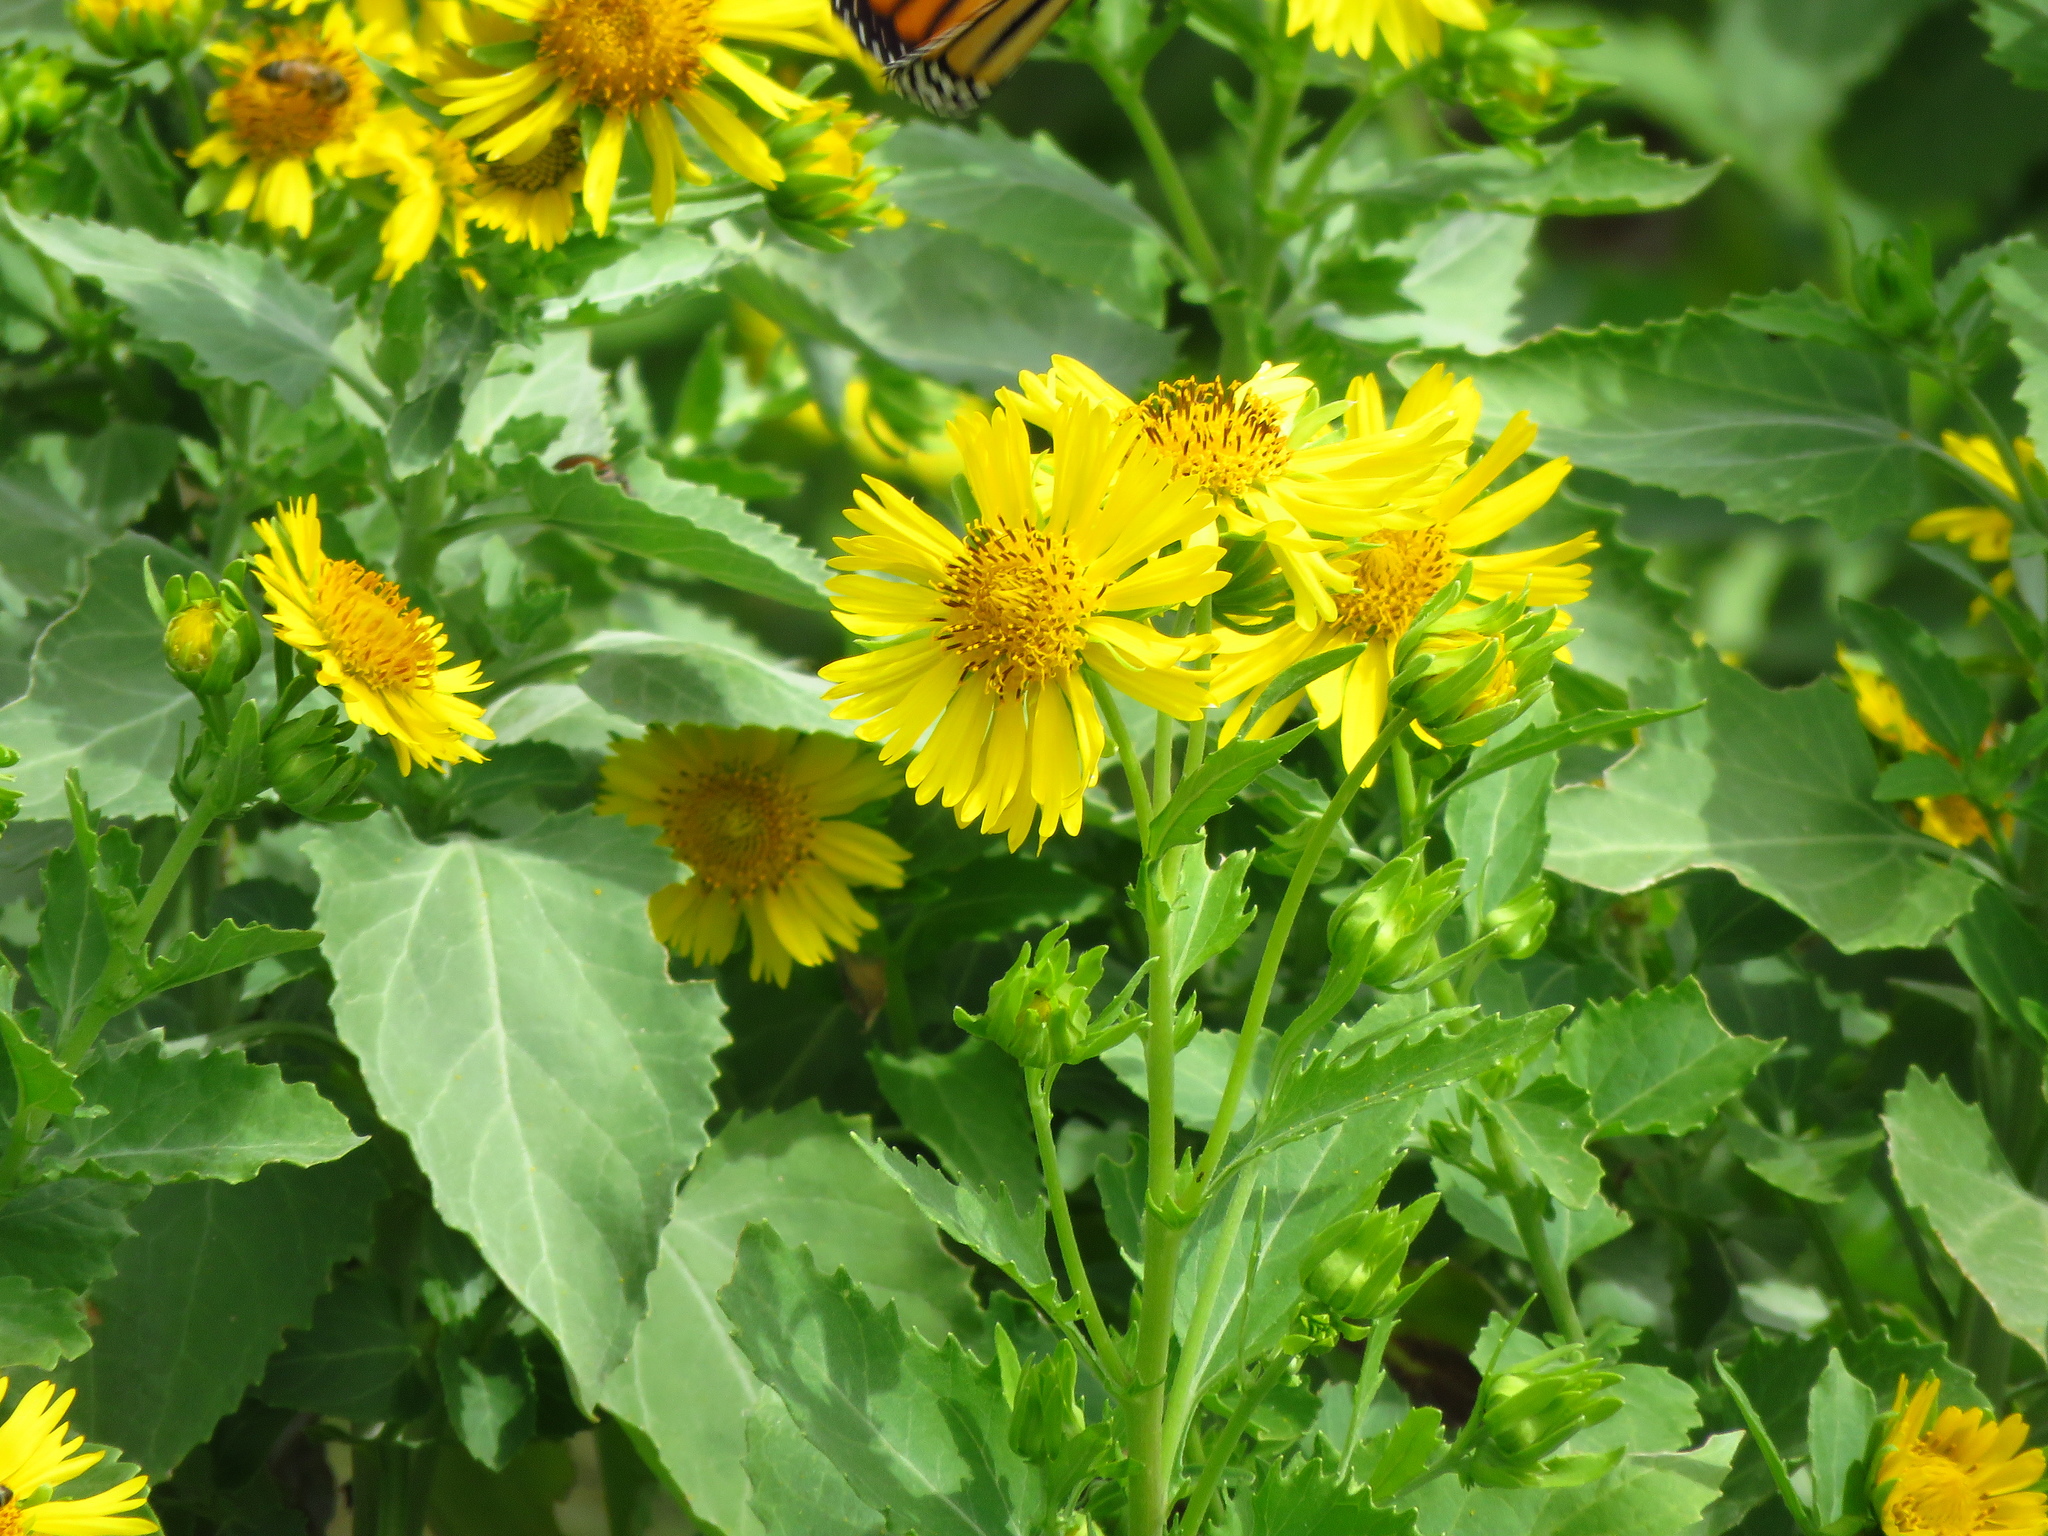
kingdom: Plantae
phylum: Tracheophyta
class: Magnoliopsida
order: Asterales
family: Asteraceae
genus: Verbesina
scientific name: Verbesina encelioides
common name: Golden crownbeard
